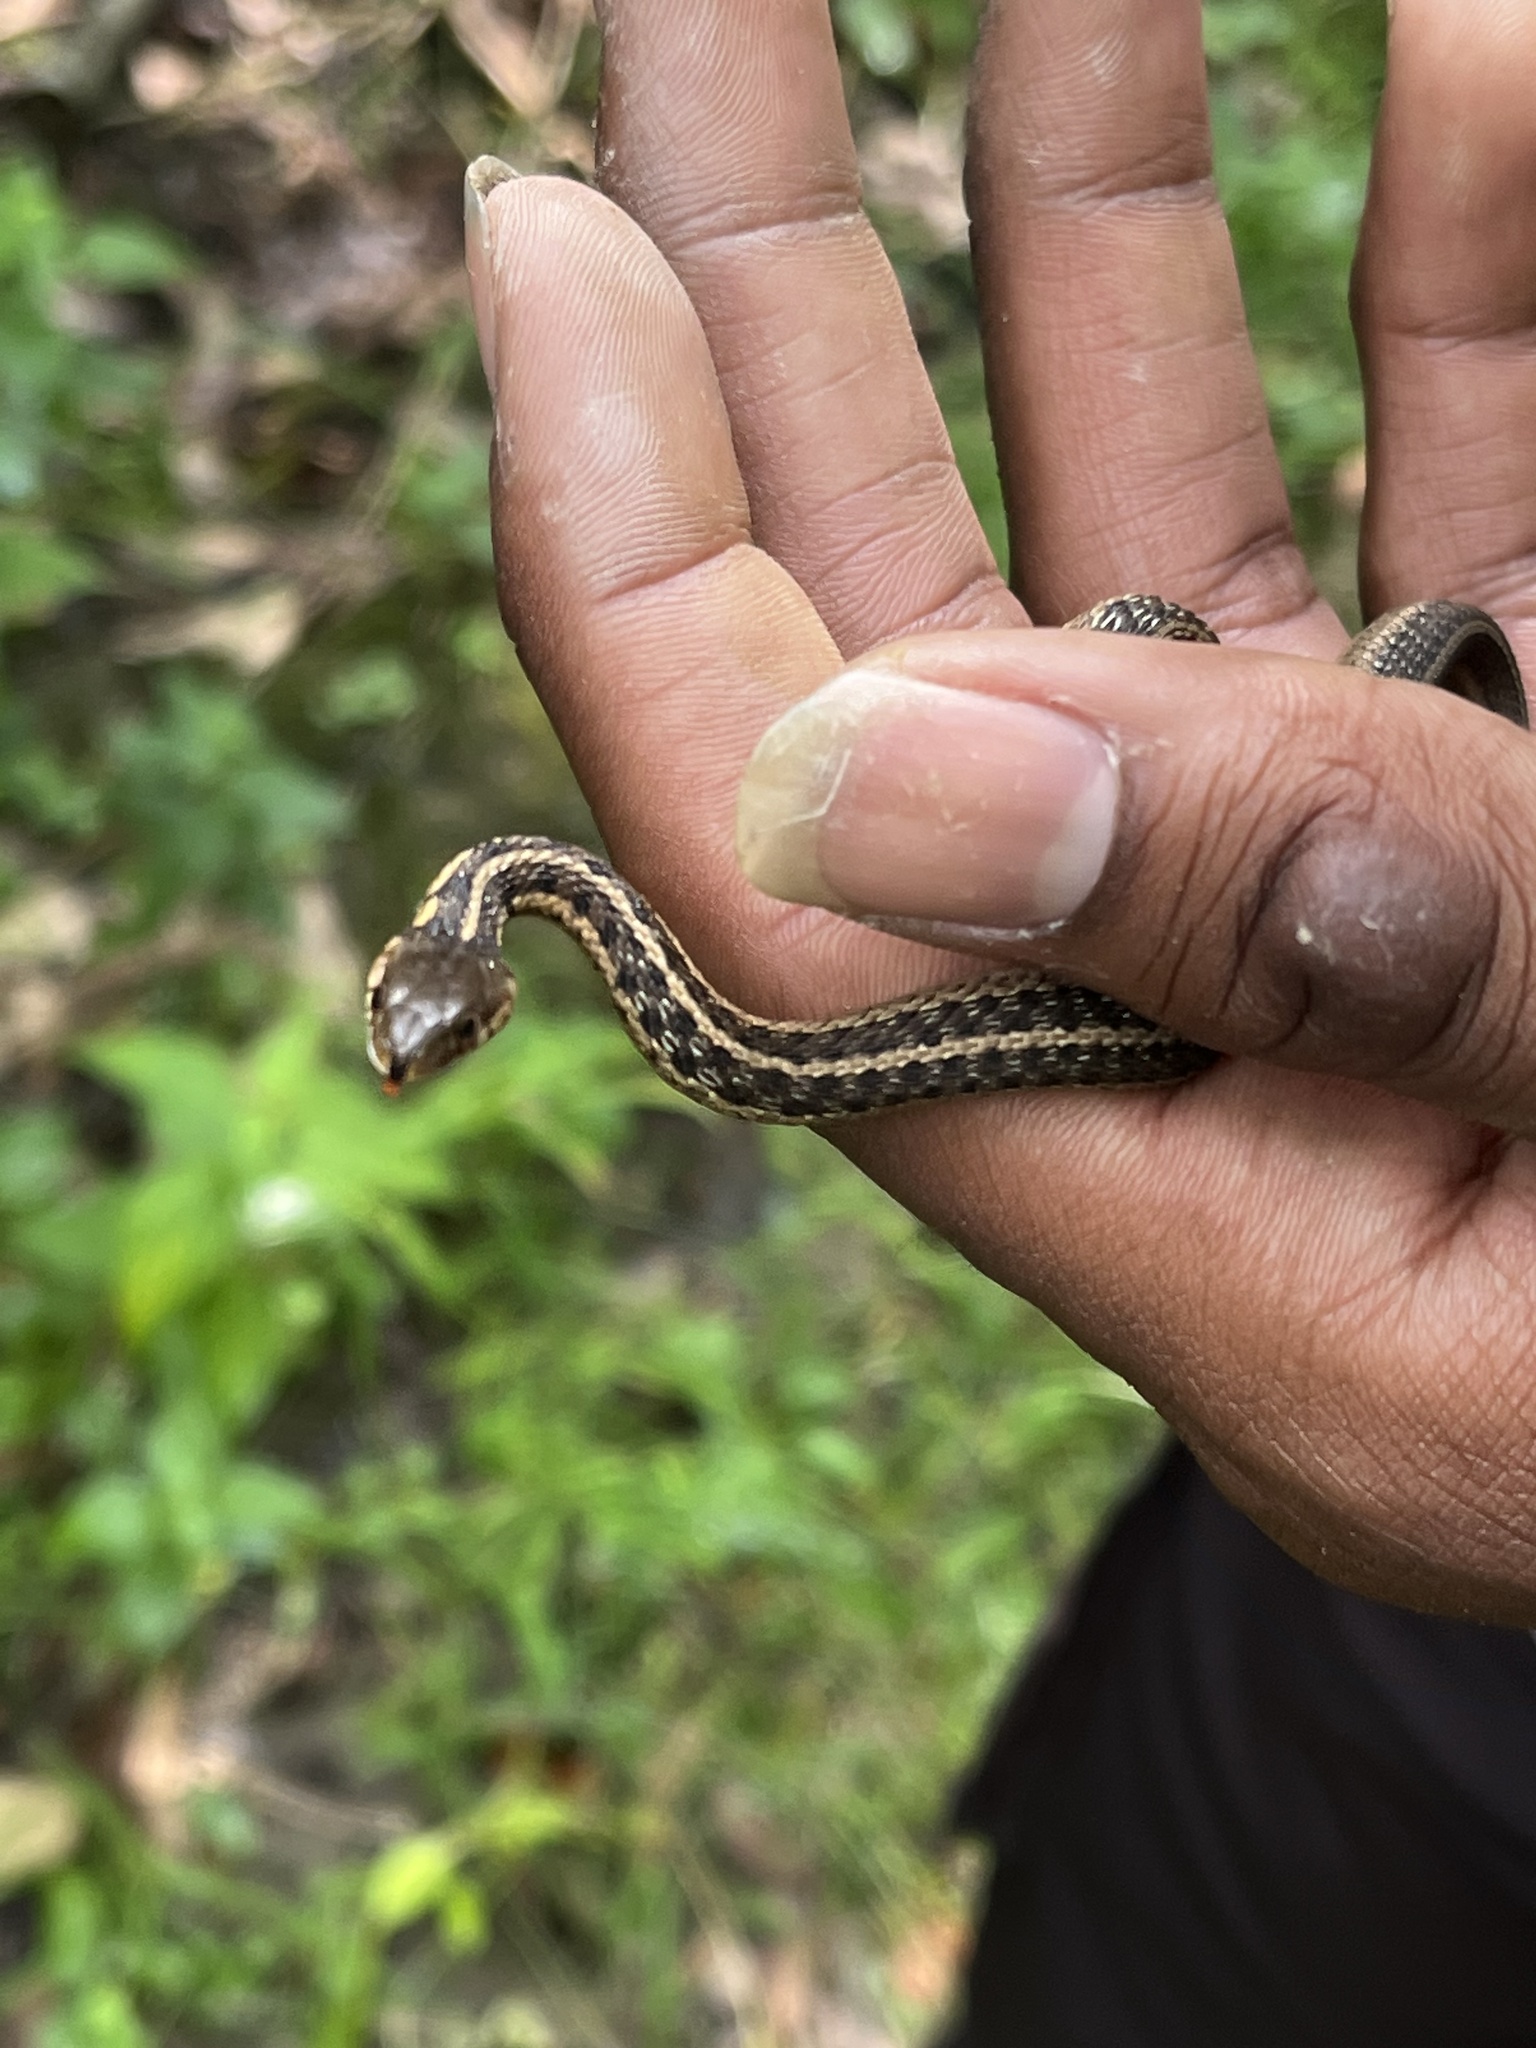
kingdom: Animalia
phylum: Chordata
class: Squamata
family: Colubridae
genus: Thamnophis
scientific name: Thamnophis sirtalis
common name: Common garter snake
